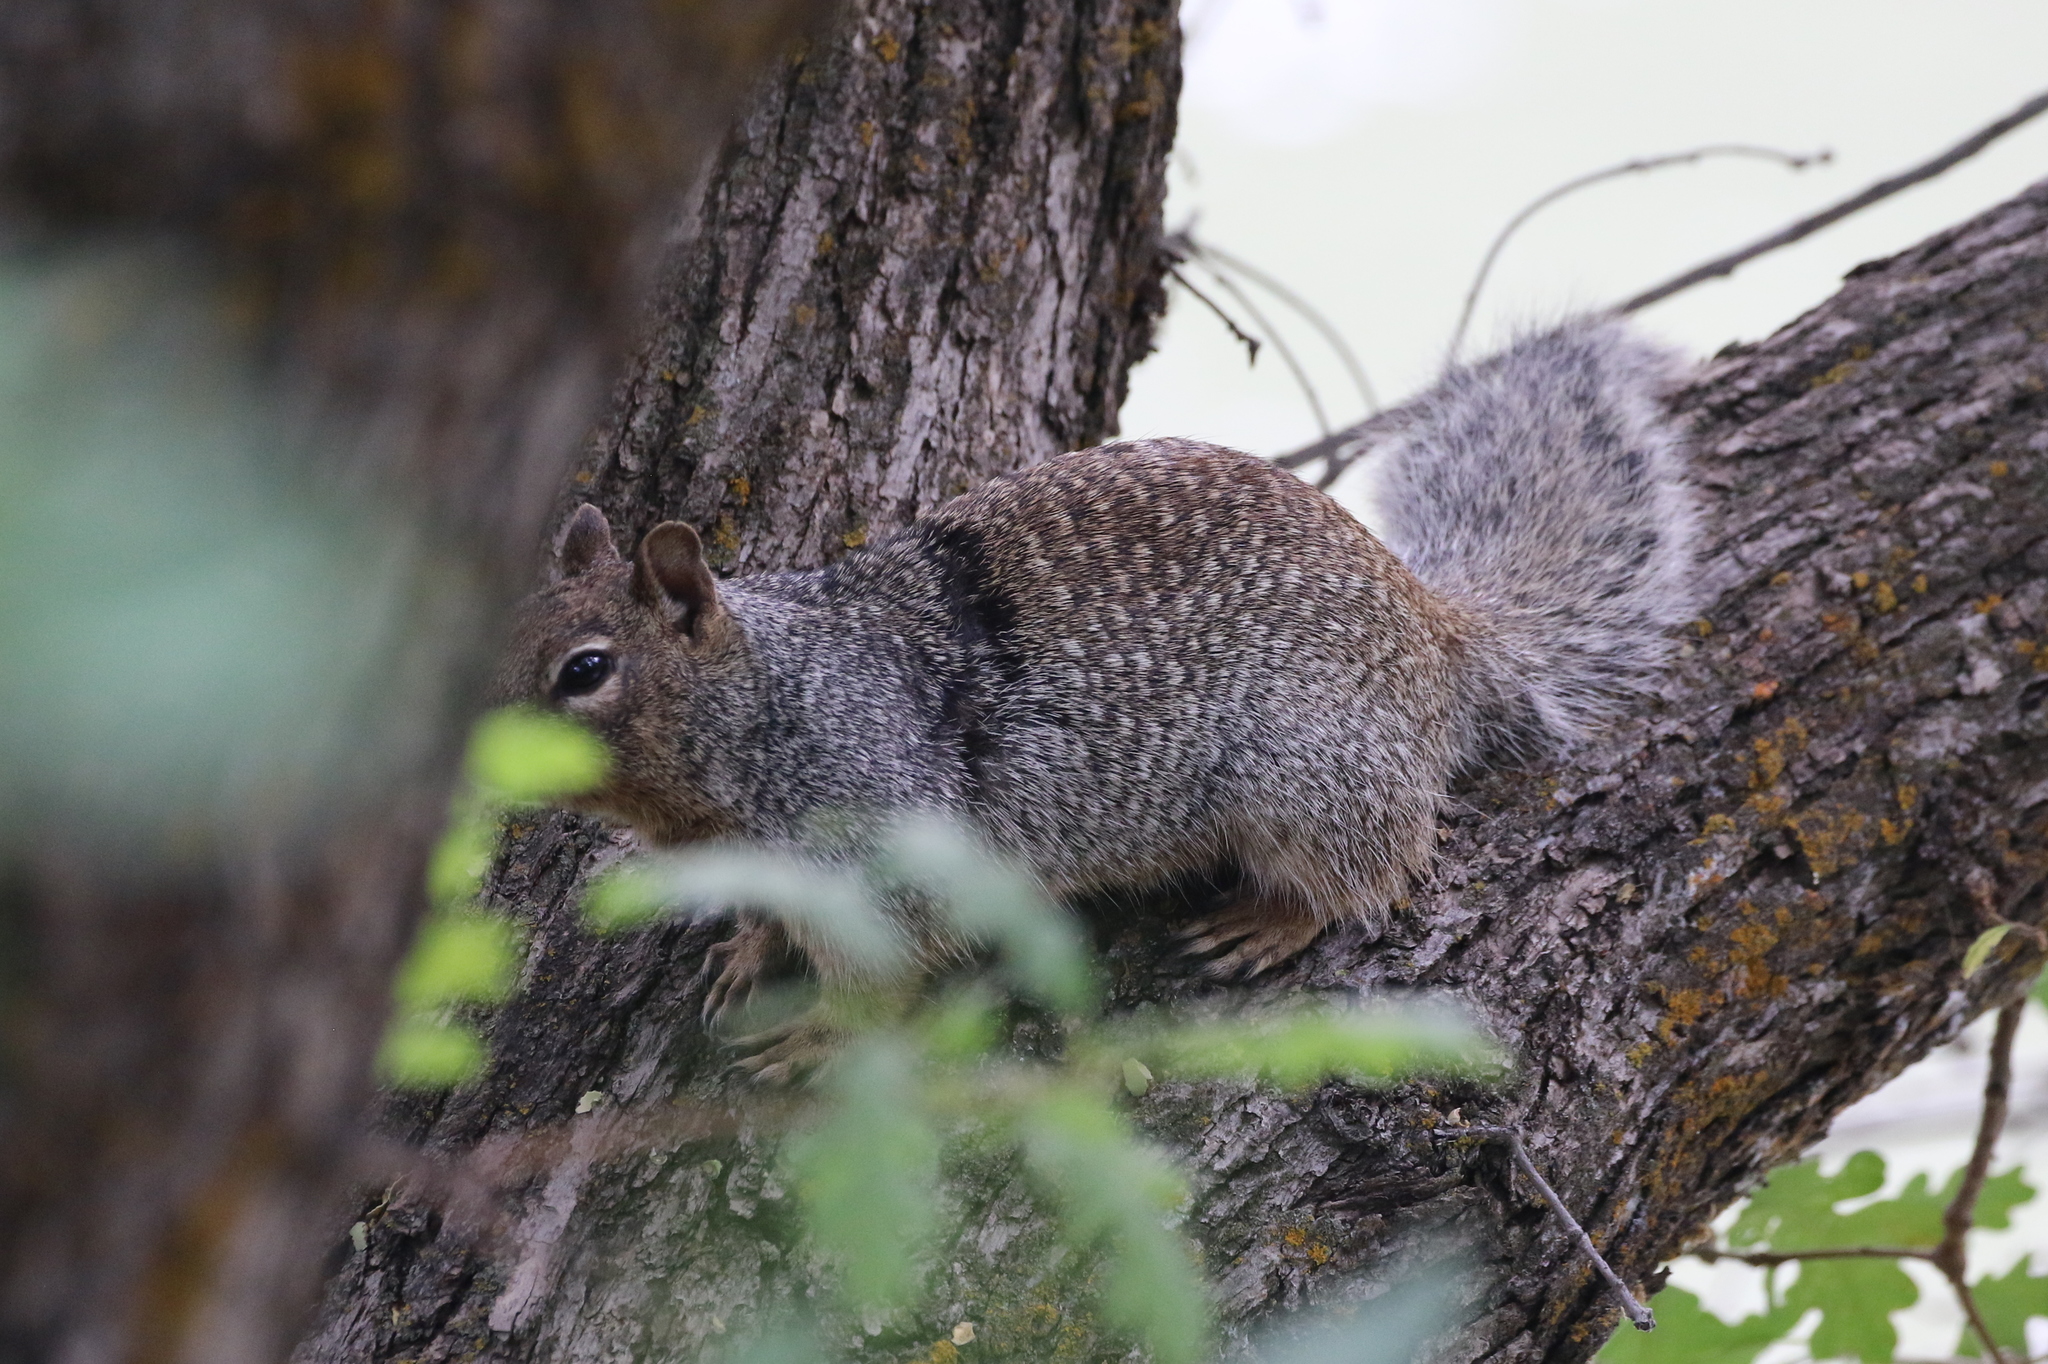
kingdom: Animalia
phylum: Chordata
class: Mammalia
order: Rodentia
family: Sciuridae
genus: Otospermophilus
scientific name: Otospermophilus variegatus
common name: Rock squirrel
